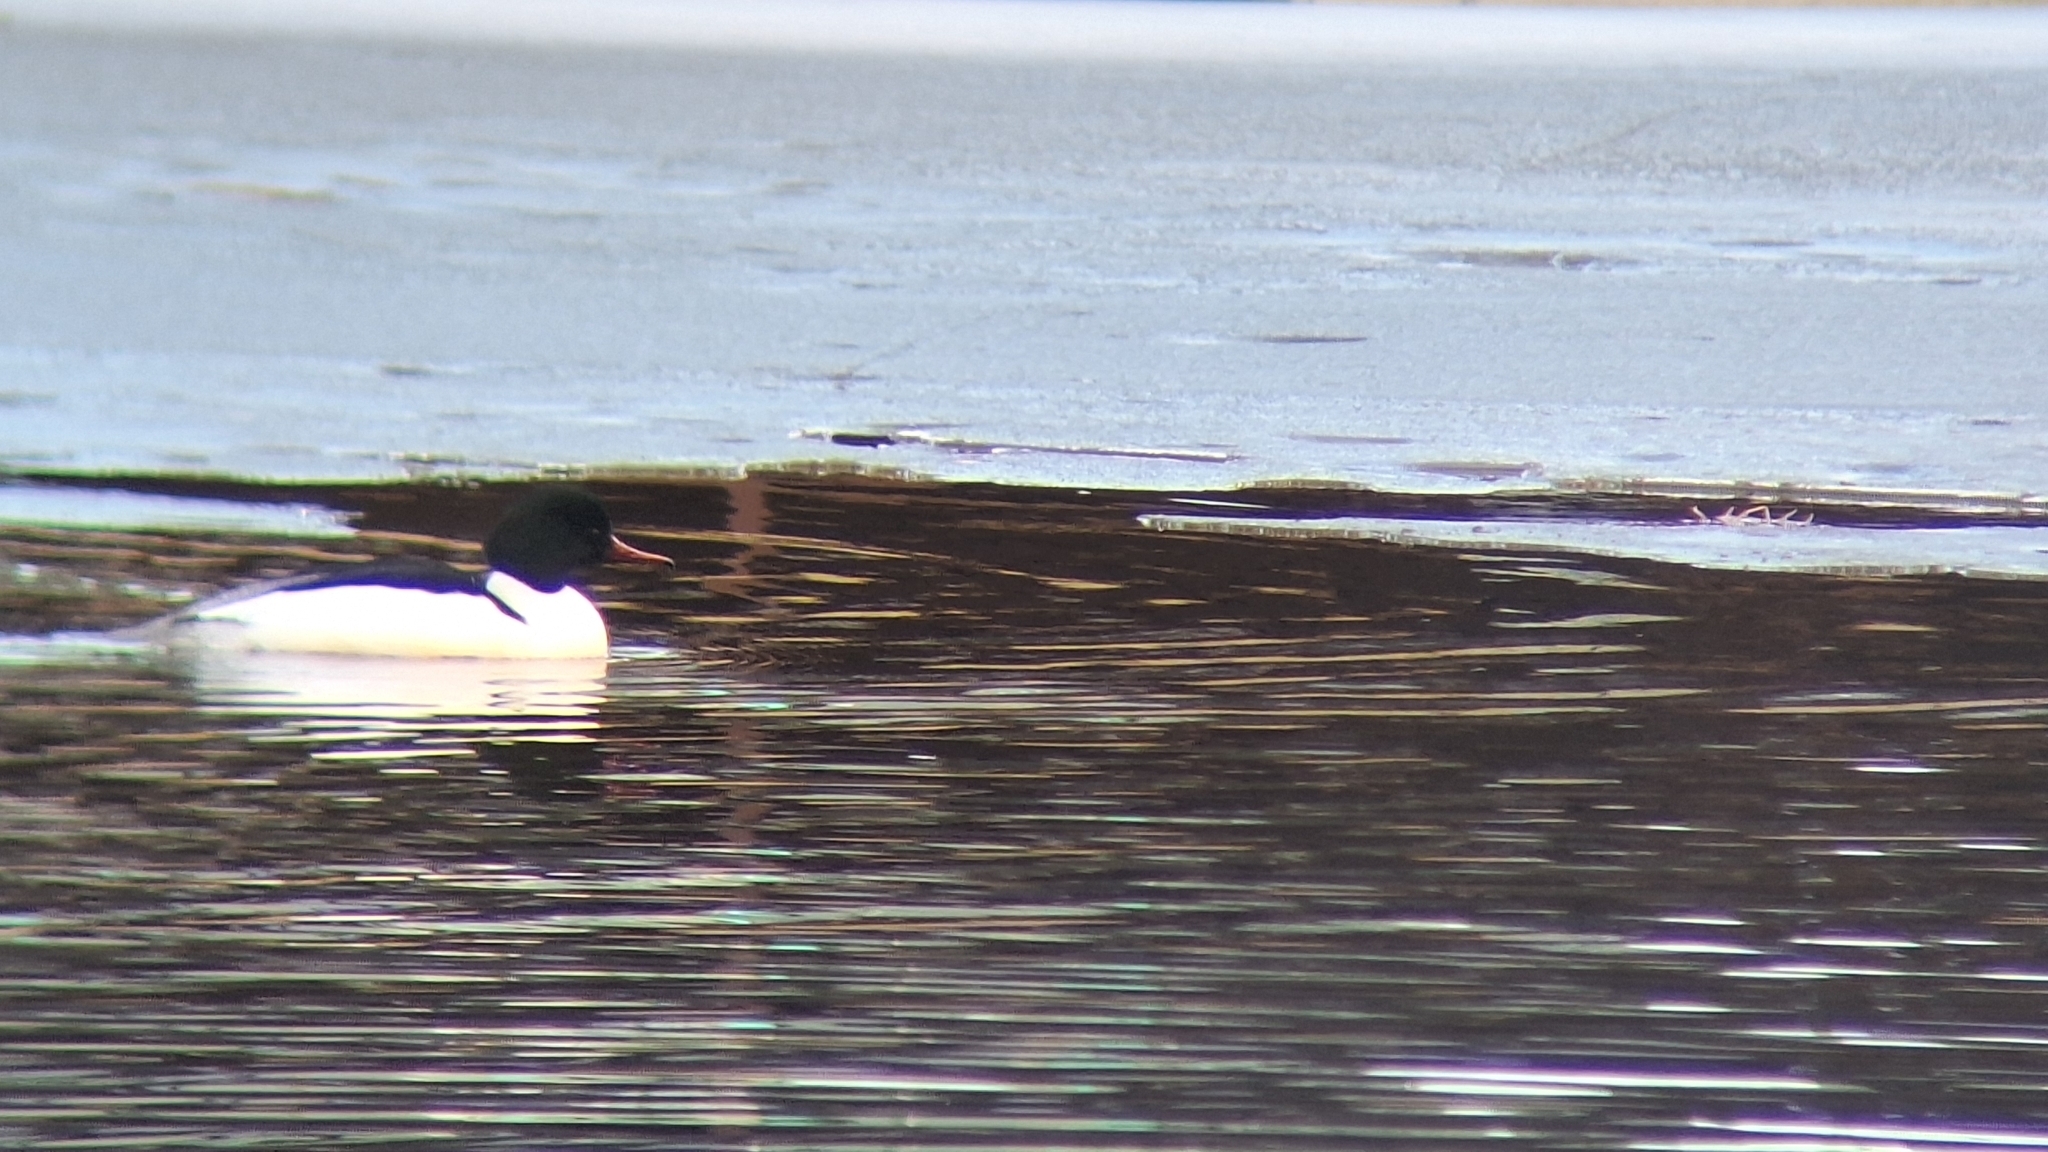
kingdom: Animalia
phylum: Chordata
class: Aves
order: Anseriformes
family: Anatidae
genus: Mergus
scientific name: Mergus merganser
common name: Common merganser
